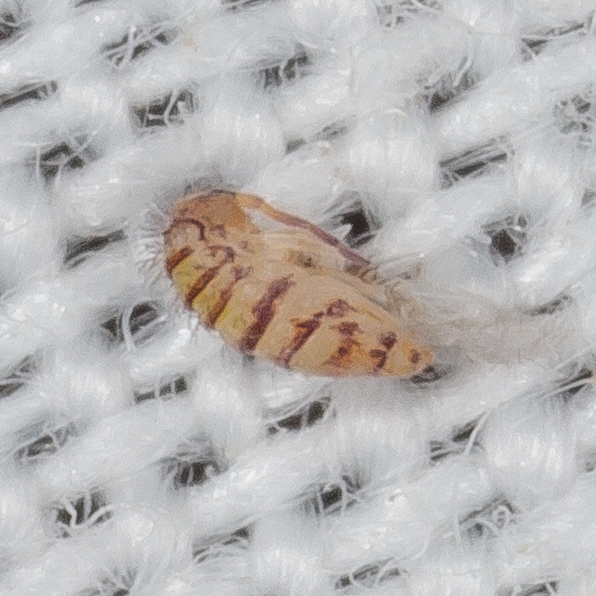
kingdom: Animalia
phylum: Arthropoda
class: Collembola
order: Entomobryomorpha
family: Entomobryidae
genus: Entomobrya
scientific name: Entomobrya atrocincta
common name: Springtail
